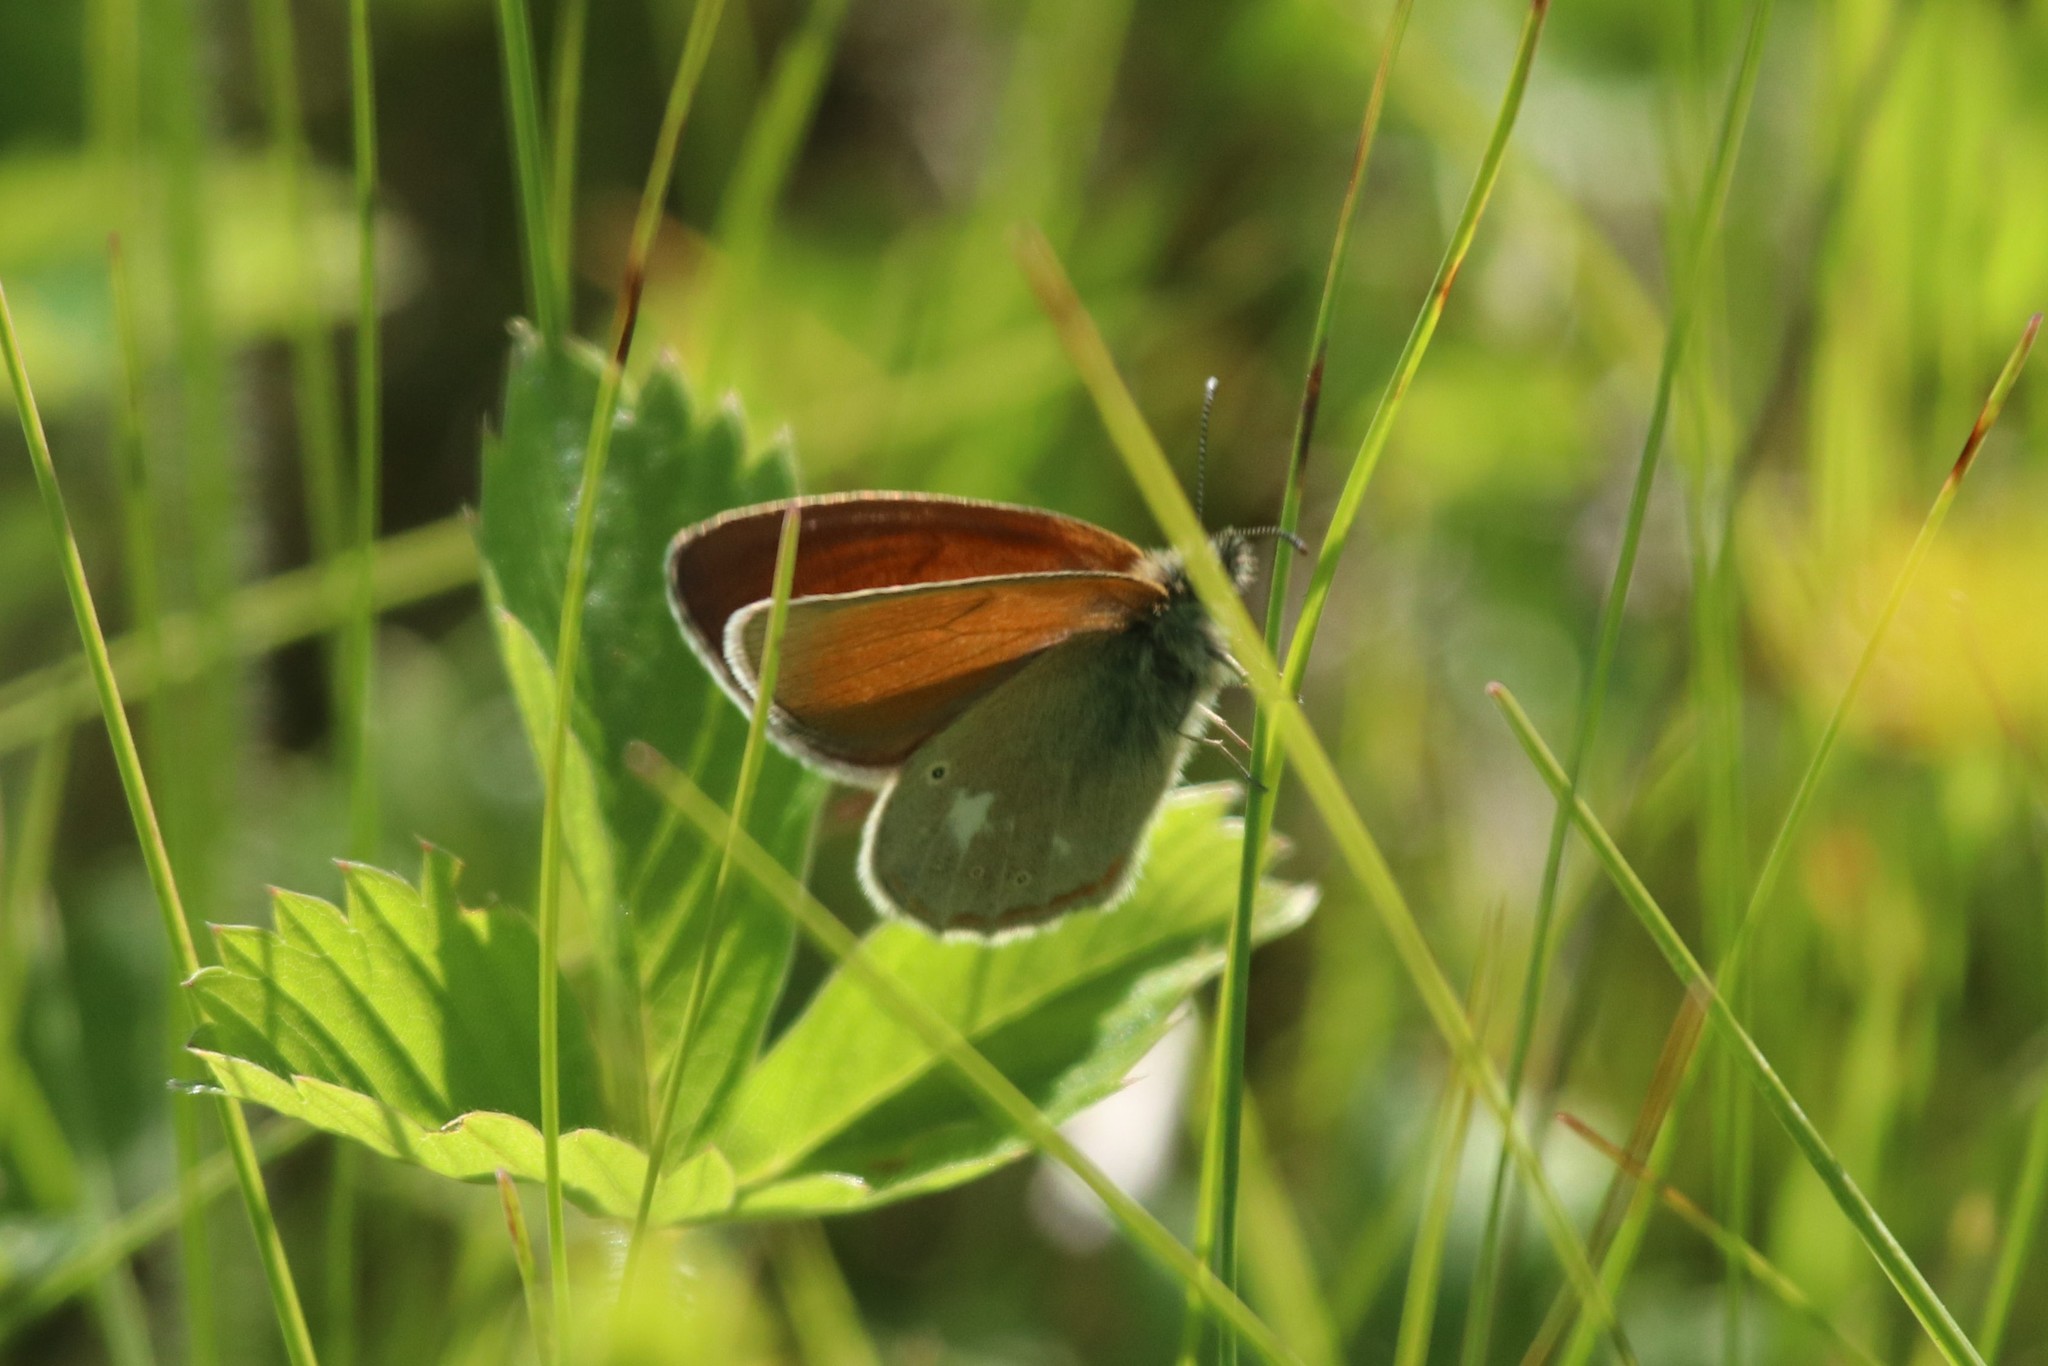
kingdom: Animalia
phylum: Arthropoda
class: Insecta
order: Lepidoptera
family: Nymphalidae
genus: Coenonympha
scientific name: Coenonympha iphis
